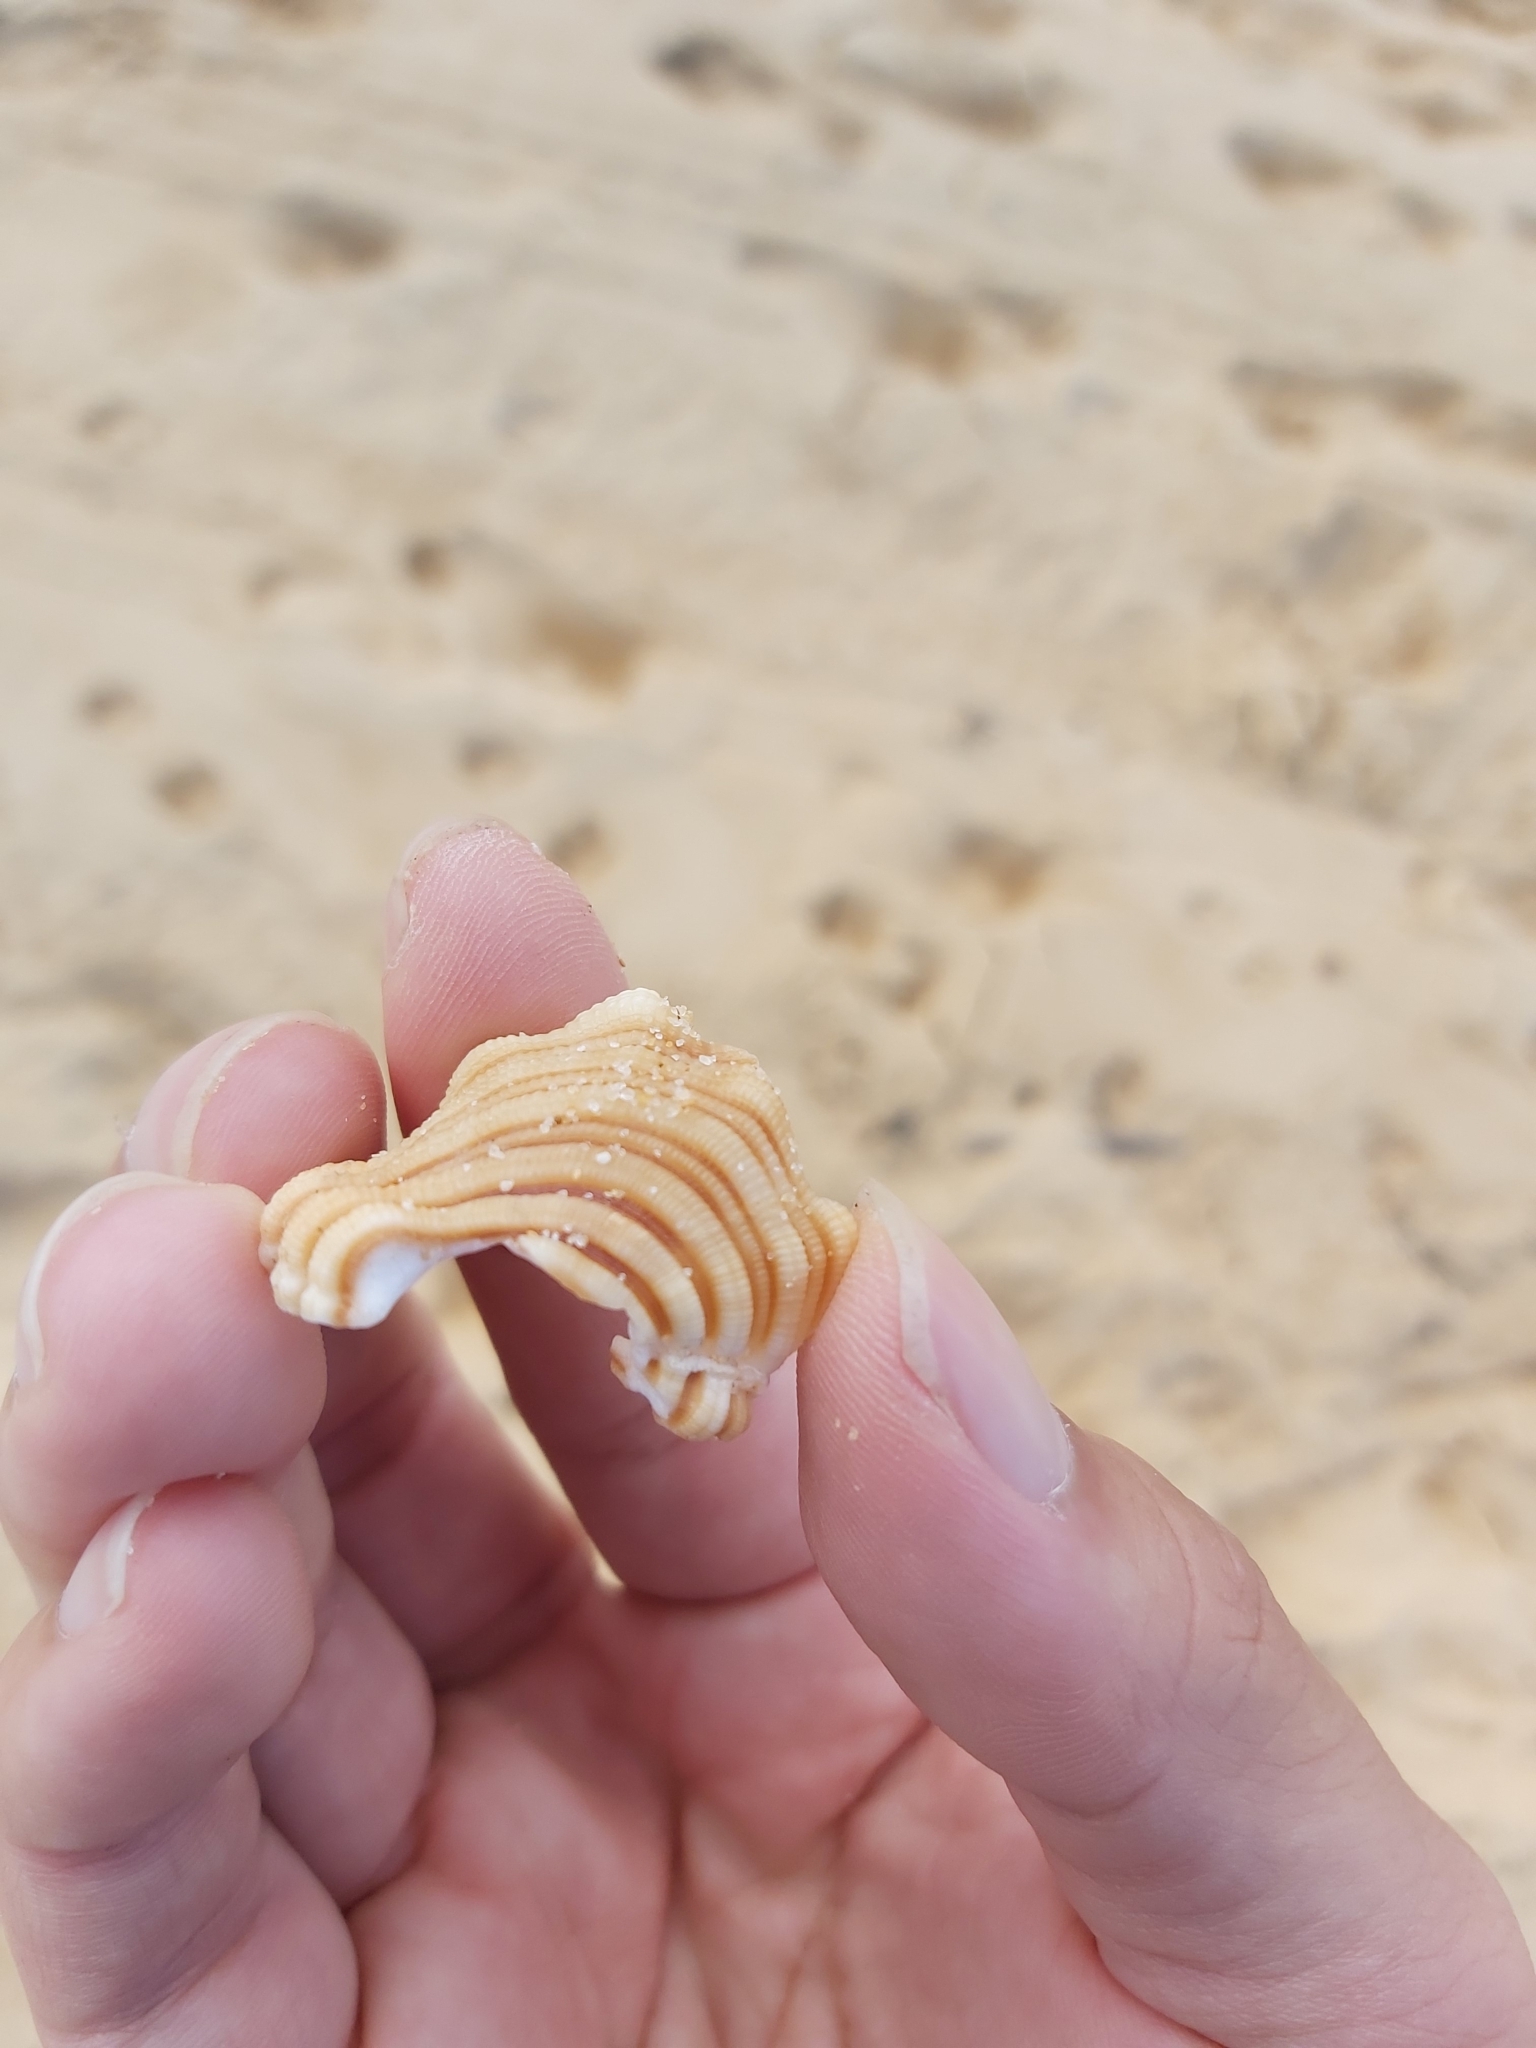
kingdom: Animalia
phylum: Mollusca
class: Gastropoda
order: Littorinimorpha
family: Cymatiidae
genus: Cabestana
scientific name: Cabestana spengleri
